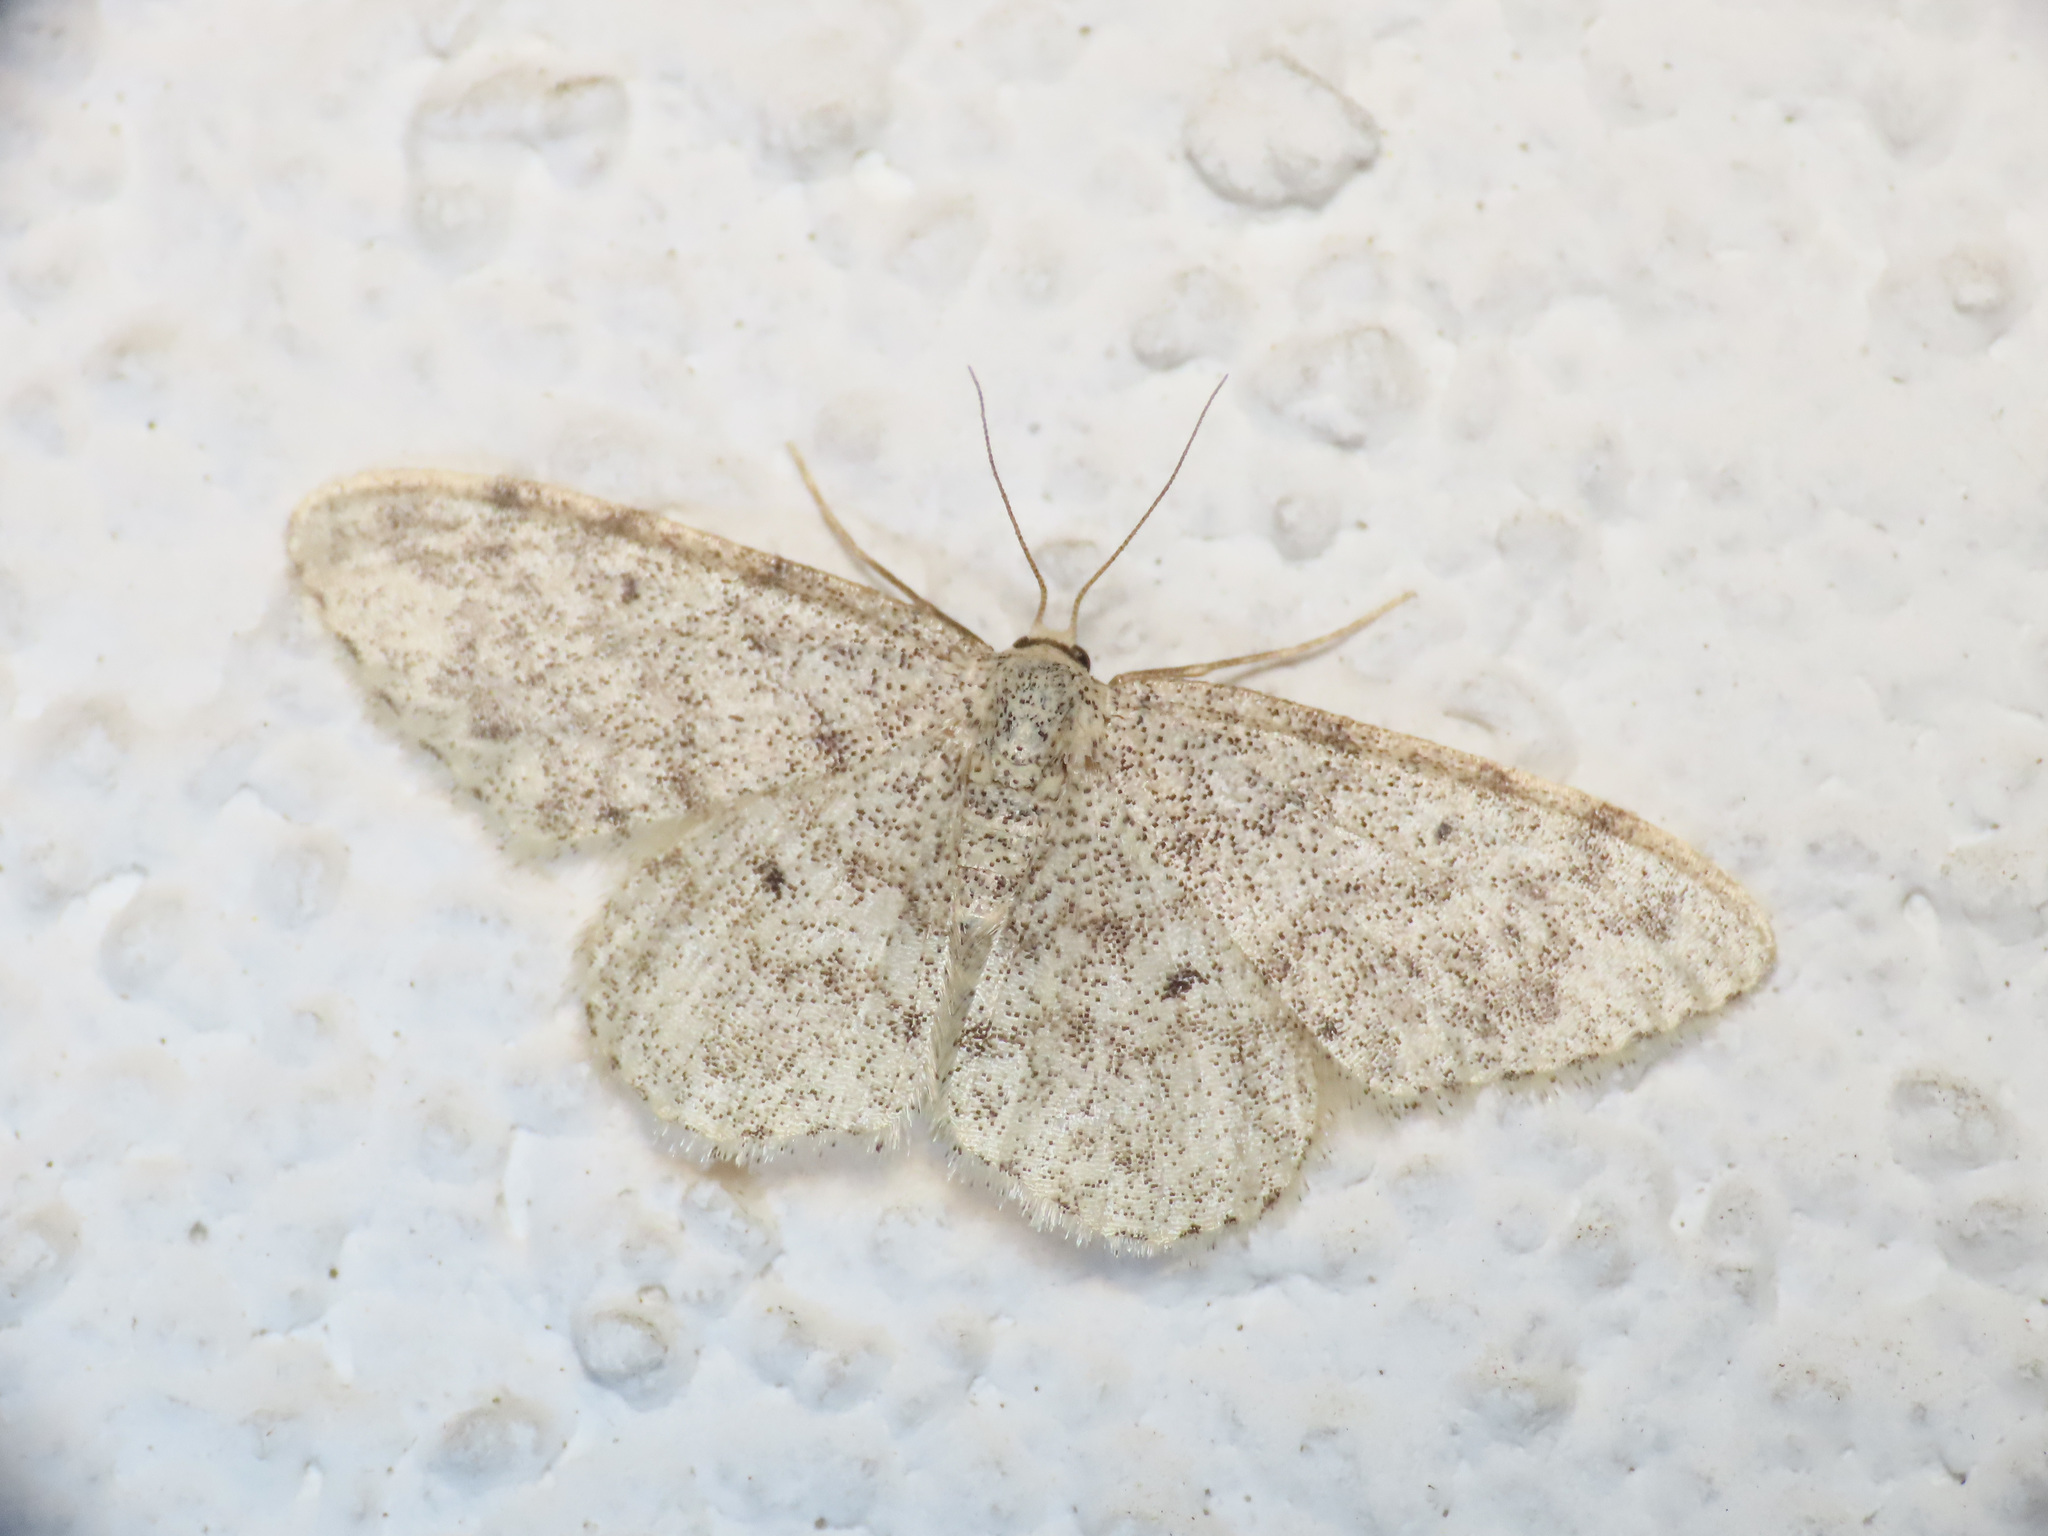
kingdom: Animalia
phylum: Arthropoda
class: Insecta
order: Lepidoptera
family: Geometridae
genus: Idaea
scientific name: Idaea typicata
